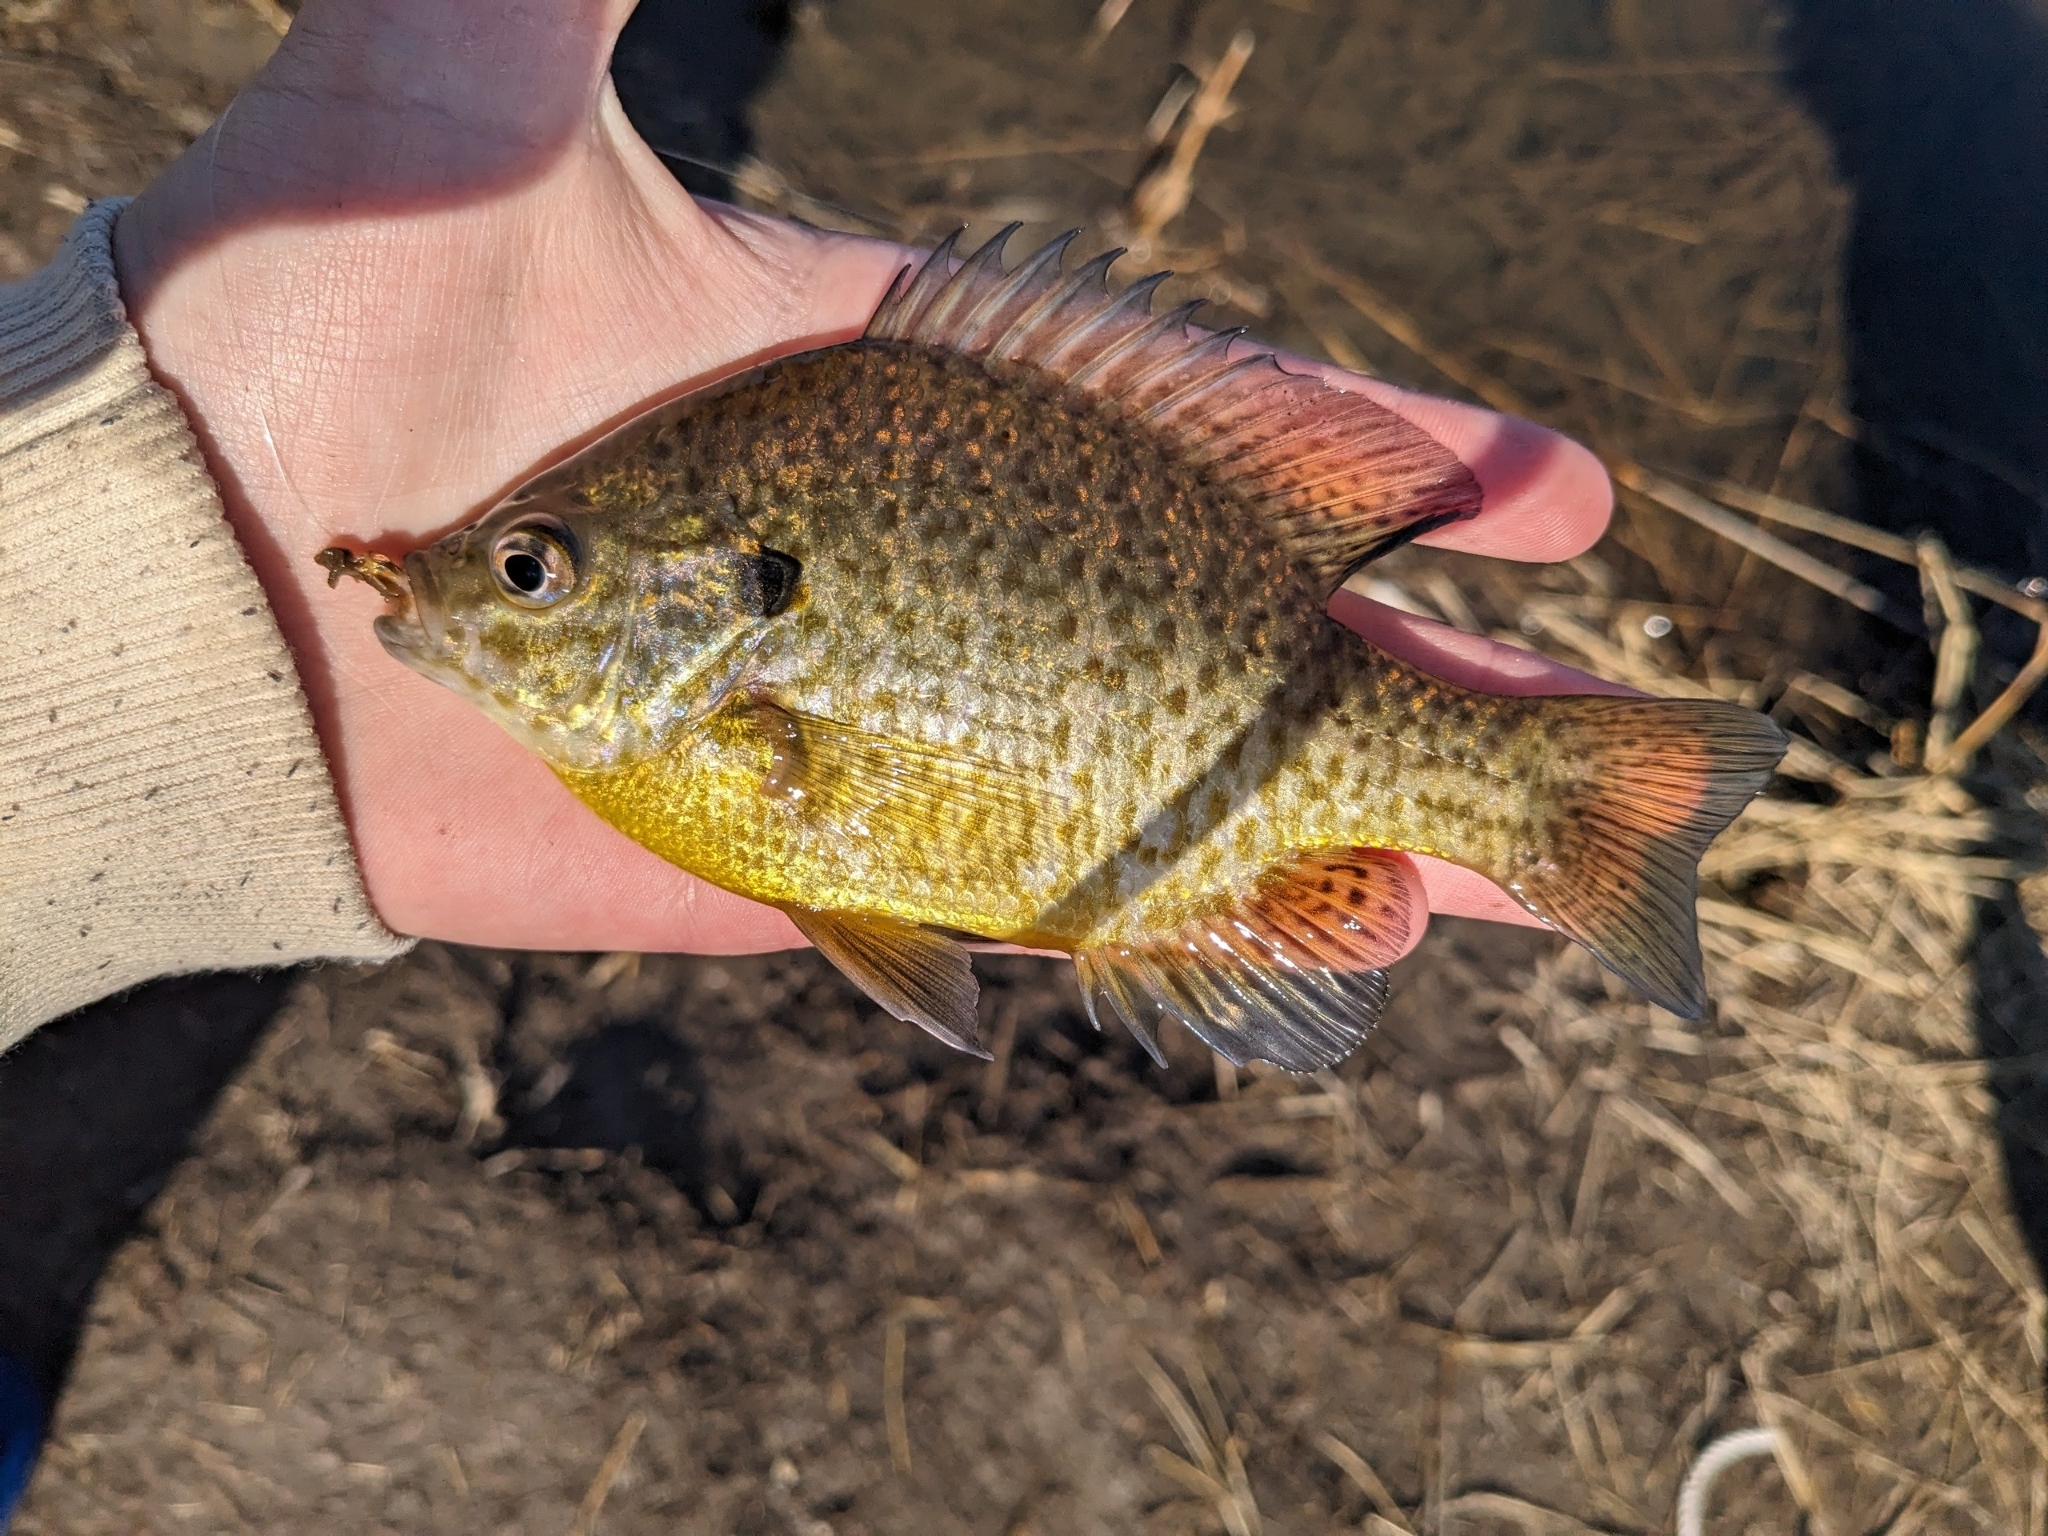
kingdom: Animalia
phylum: Chordata
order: Perciformes
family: Centrarchidae
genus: Lepomis
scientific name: Lepomis
